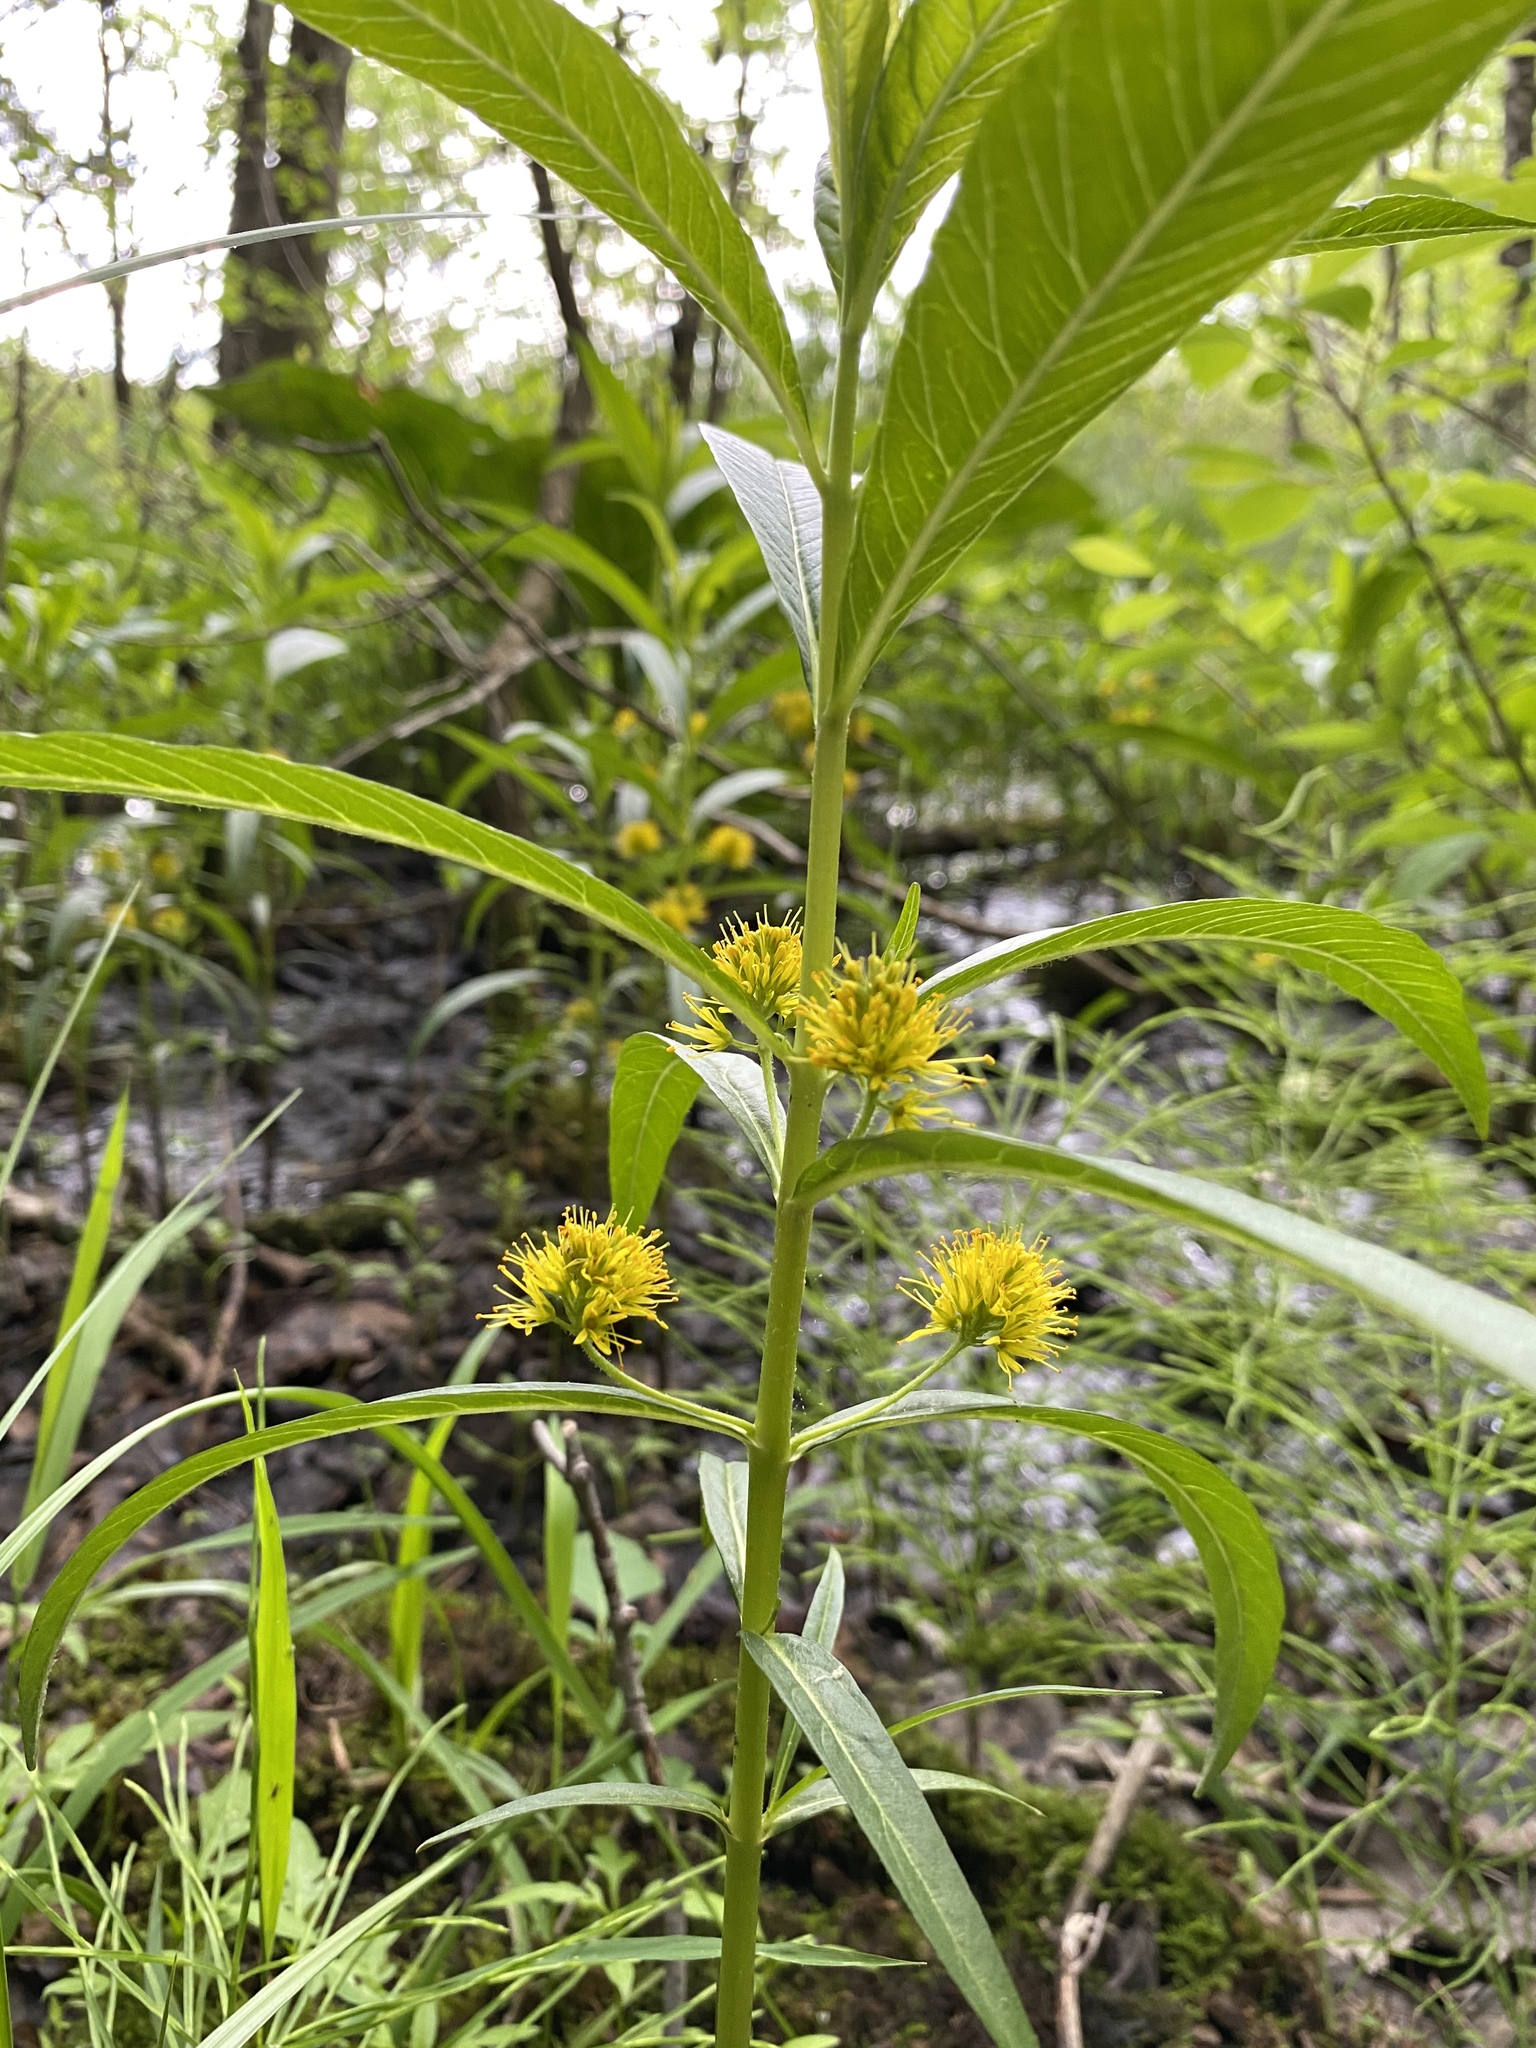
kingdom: Plantae
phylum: Tracheophyta
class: Magnoliopsida
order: Ericales
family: Primulaceae
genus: Lysimachia
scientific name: Lysimachia thyrsiflora
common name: Tufted loosestrife
